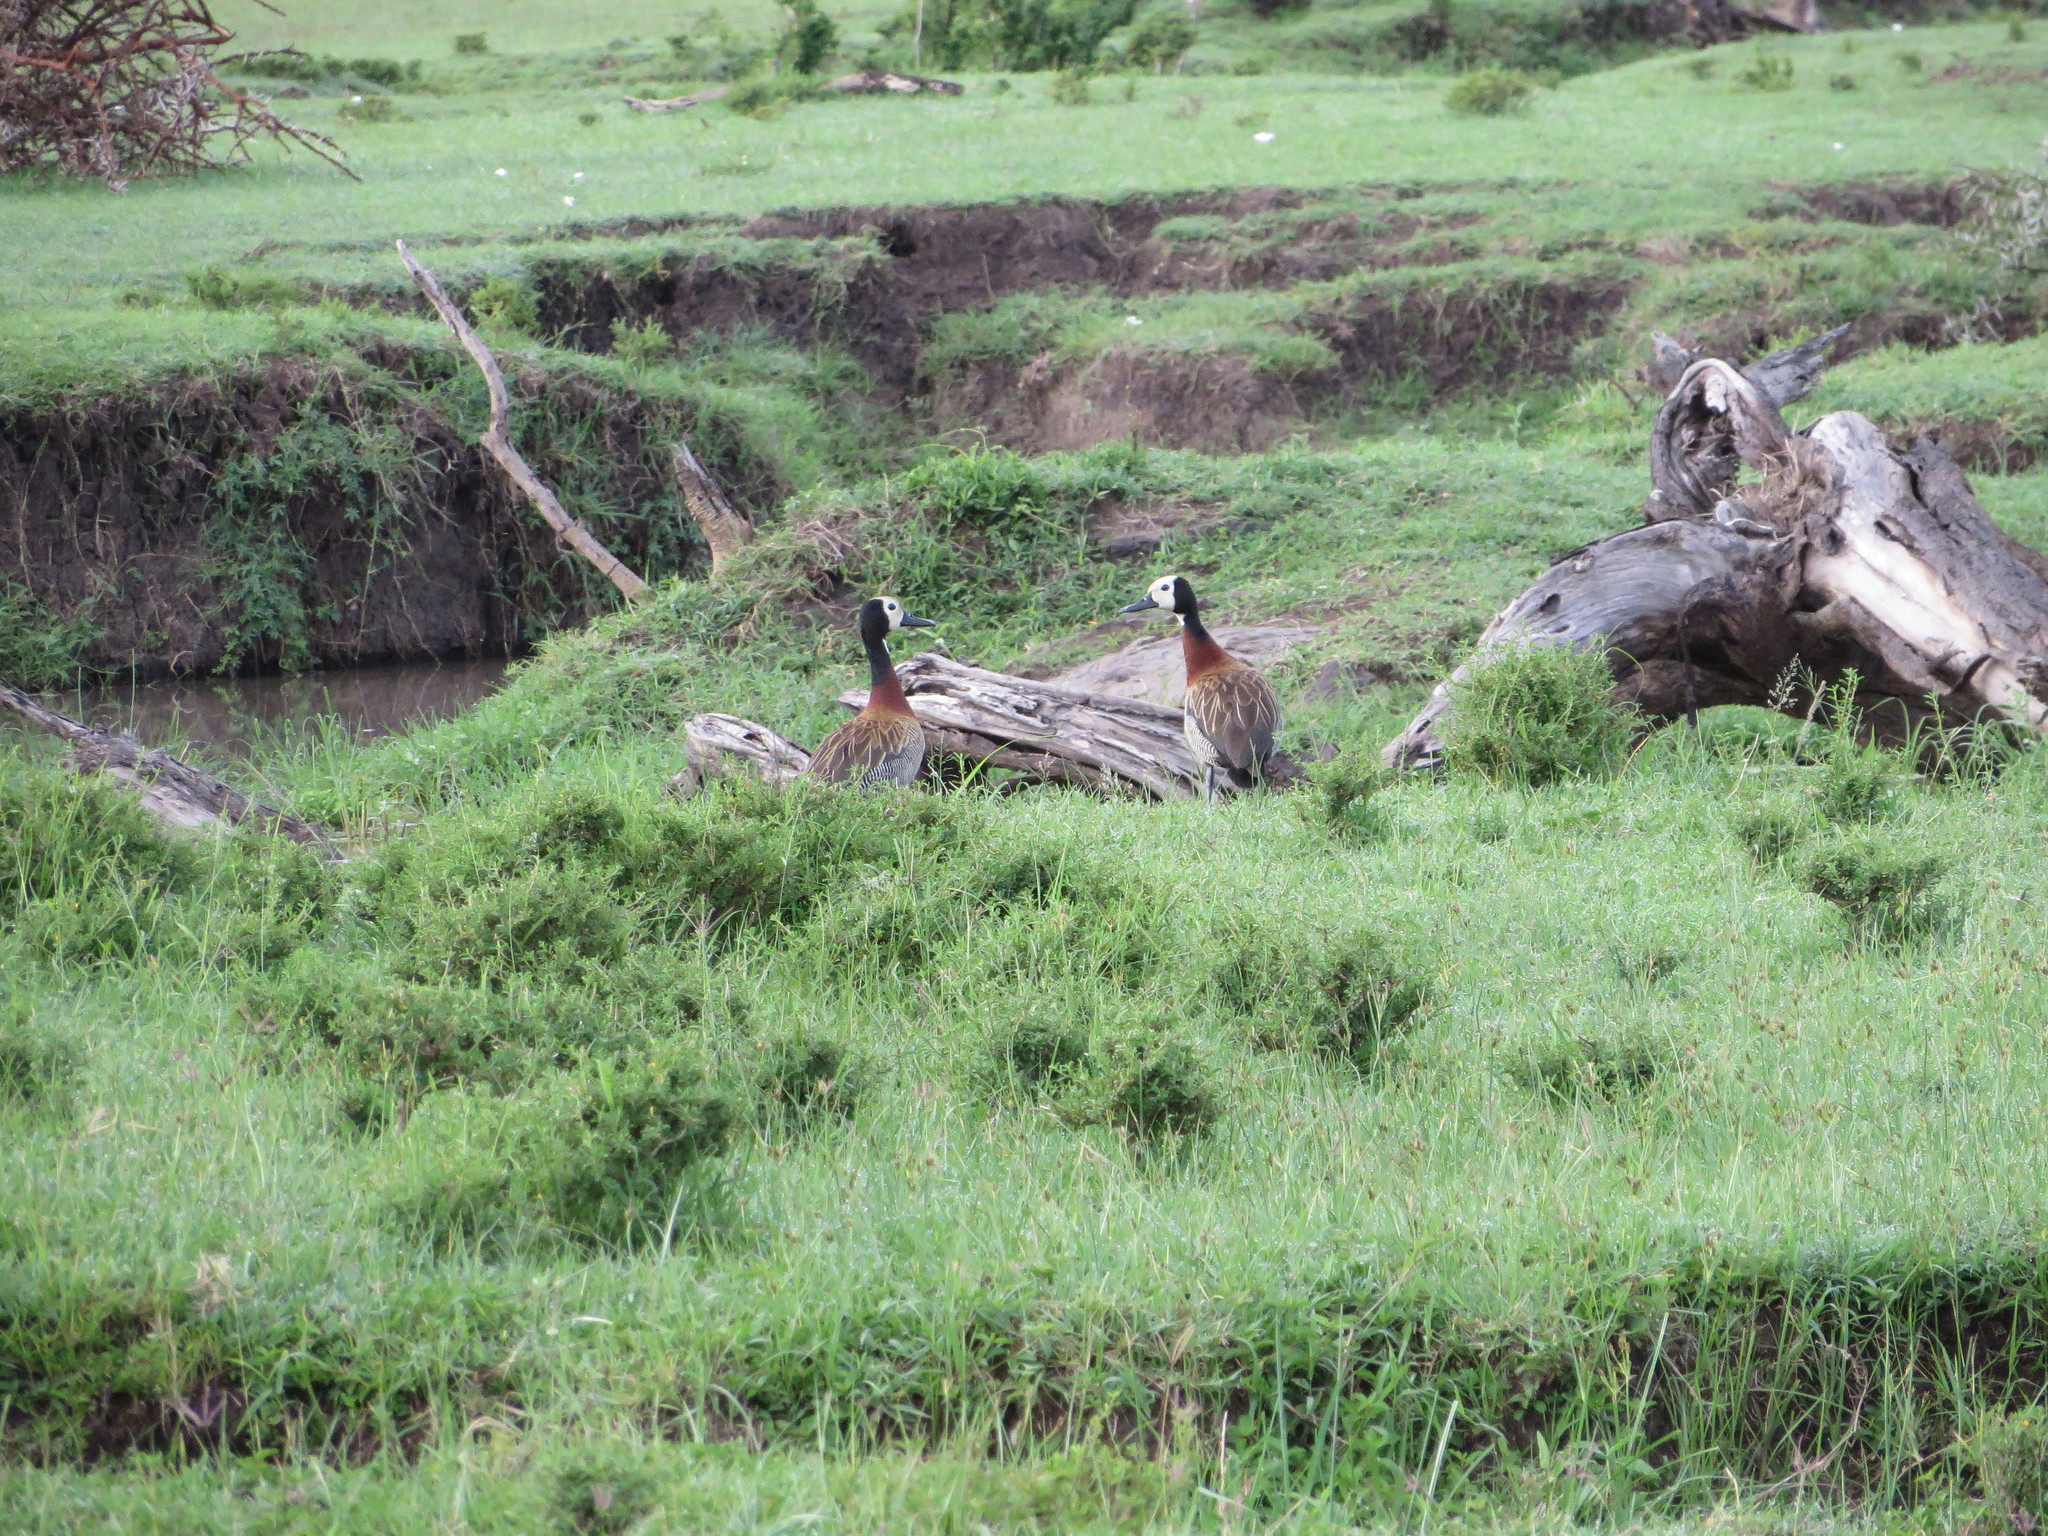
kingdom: Animalia
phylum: Chordata
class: Aves
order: Anseriformes
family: Anatidae
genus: Dendrocygna
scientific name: Dendrocygna viduata
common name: White-faced whistling duck
